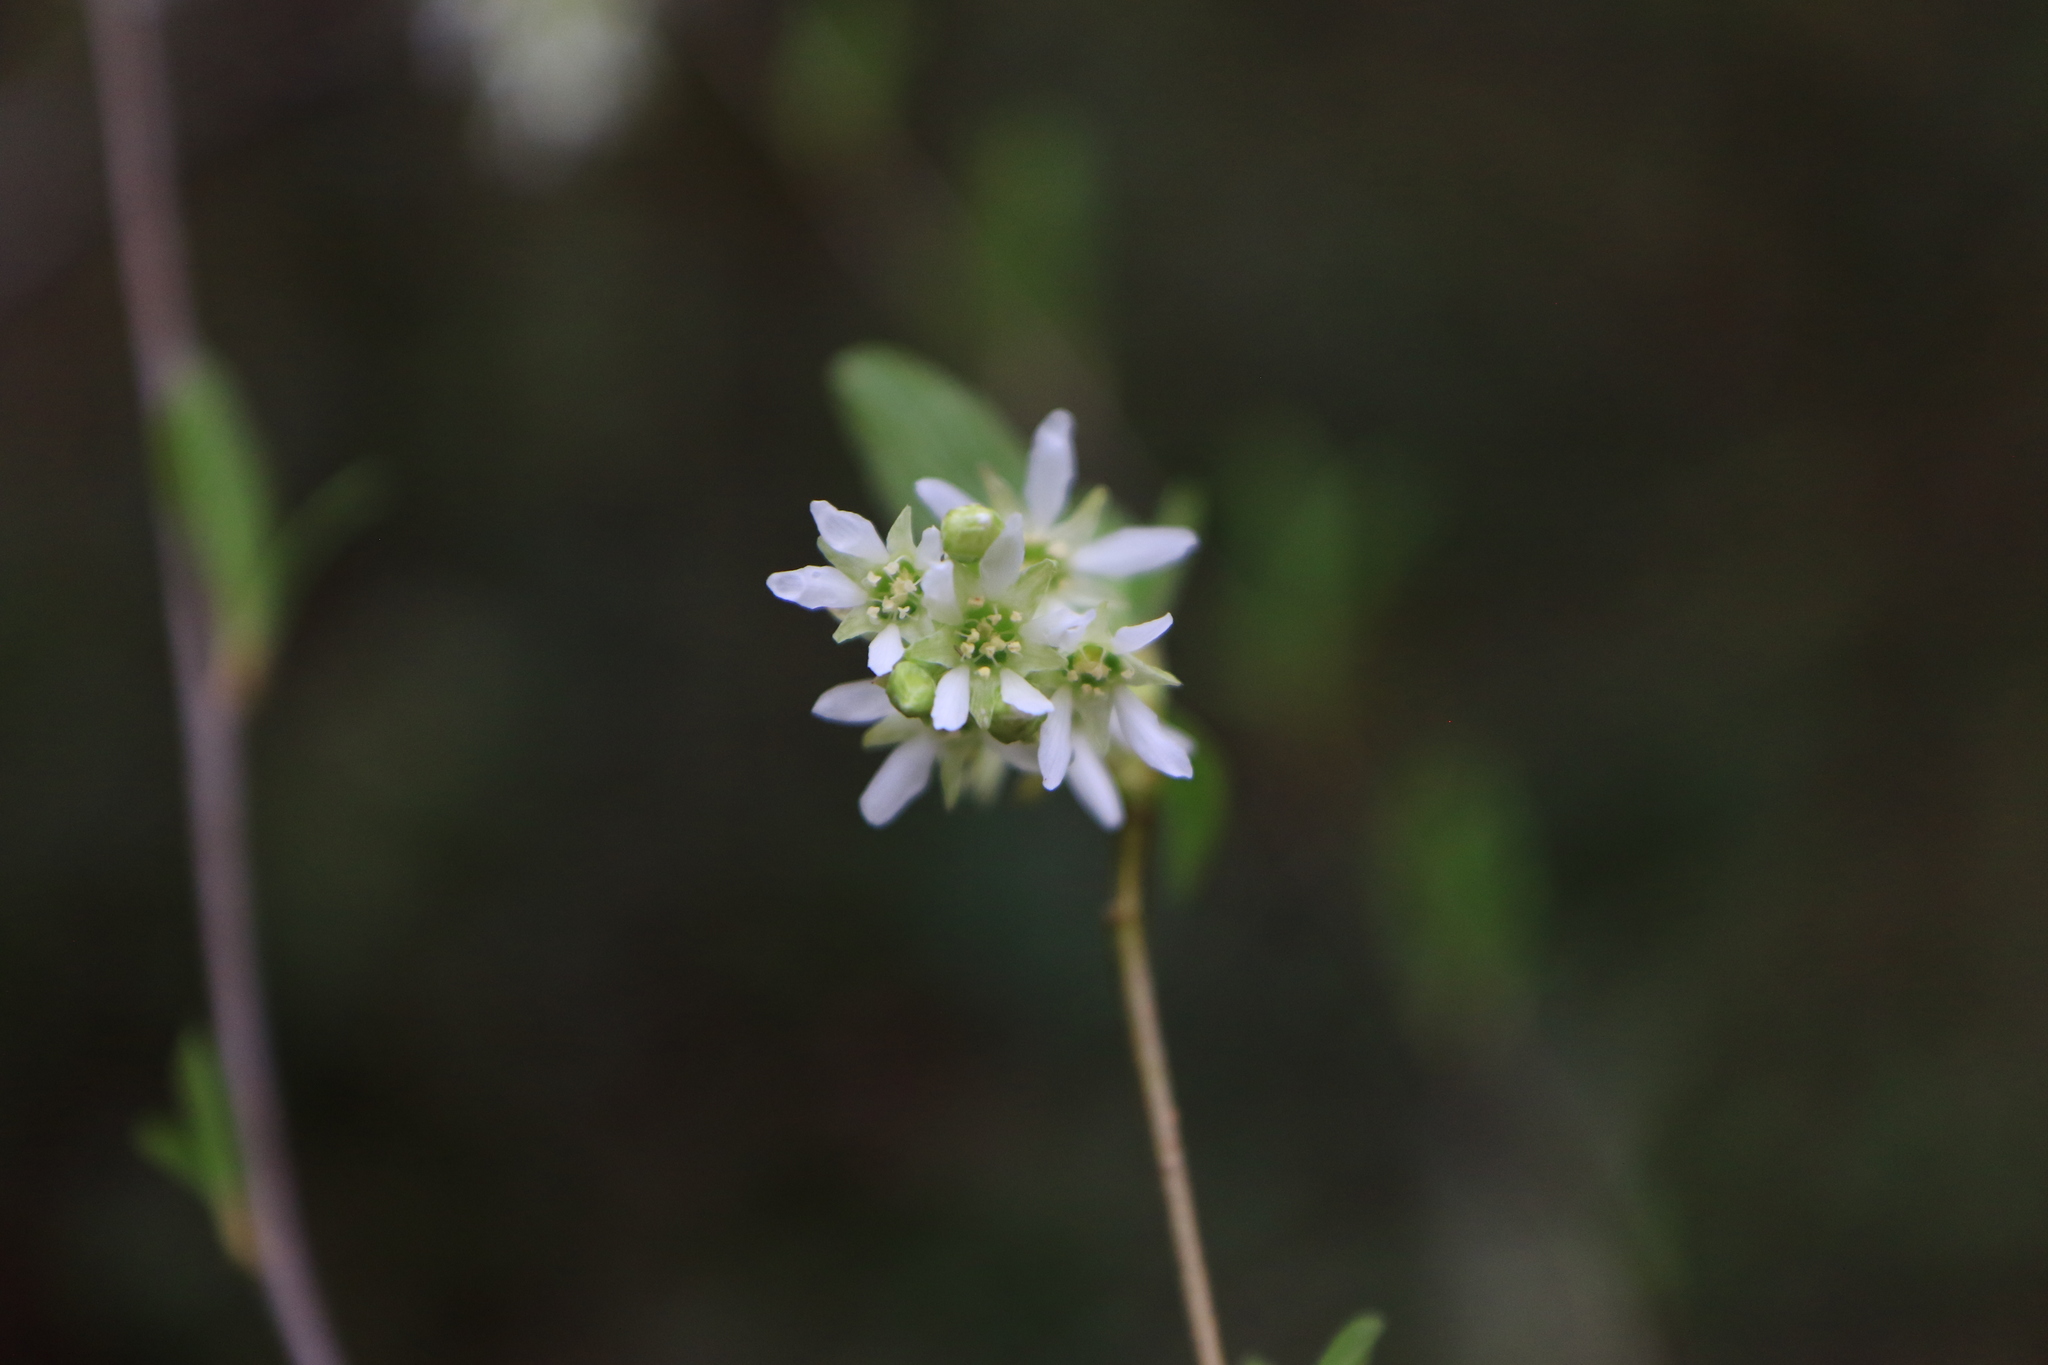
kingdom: Plantae
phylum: Tracheophyta
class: Magnoliopsida
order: Rosales
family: Rosaceae
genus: Oemleria
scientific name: Oemleria cerasiformis
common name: Osoberry
